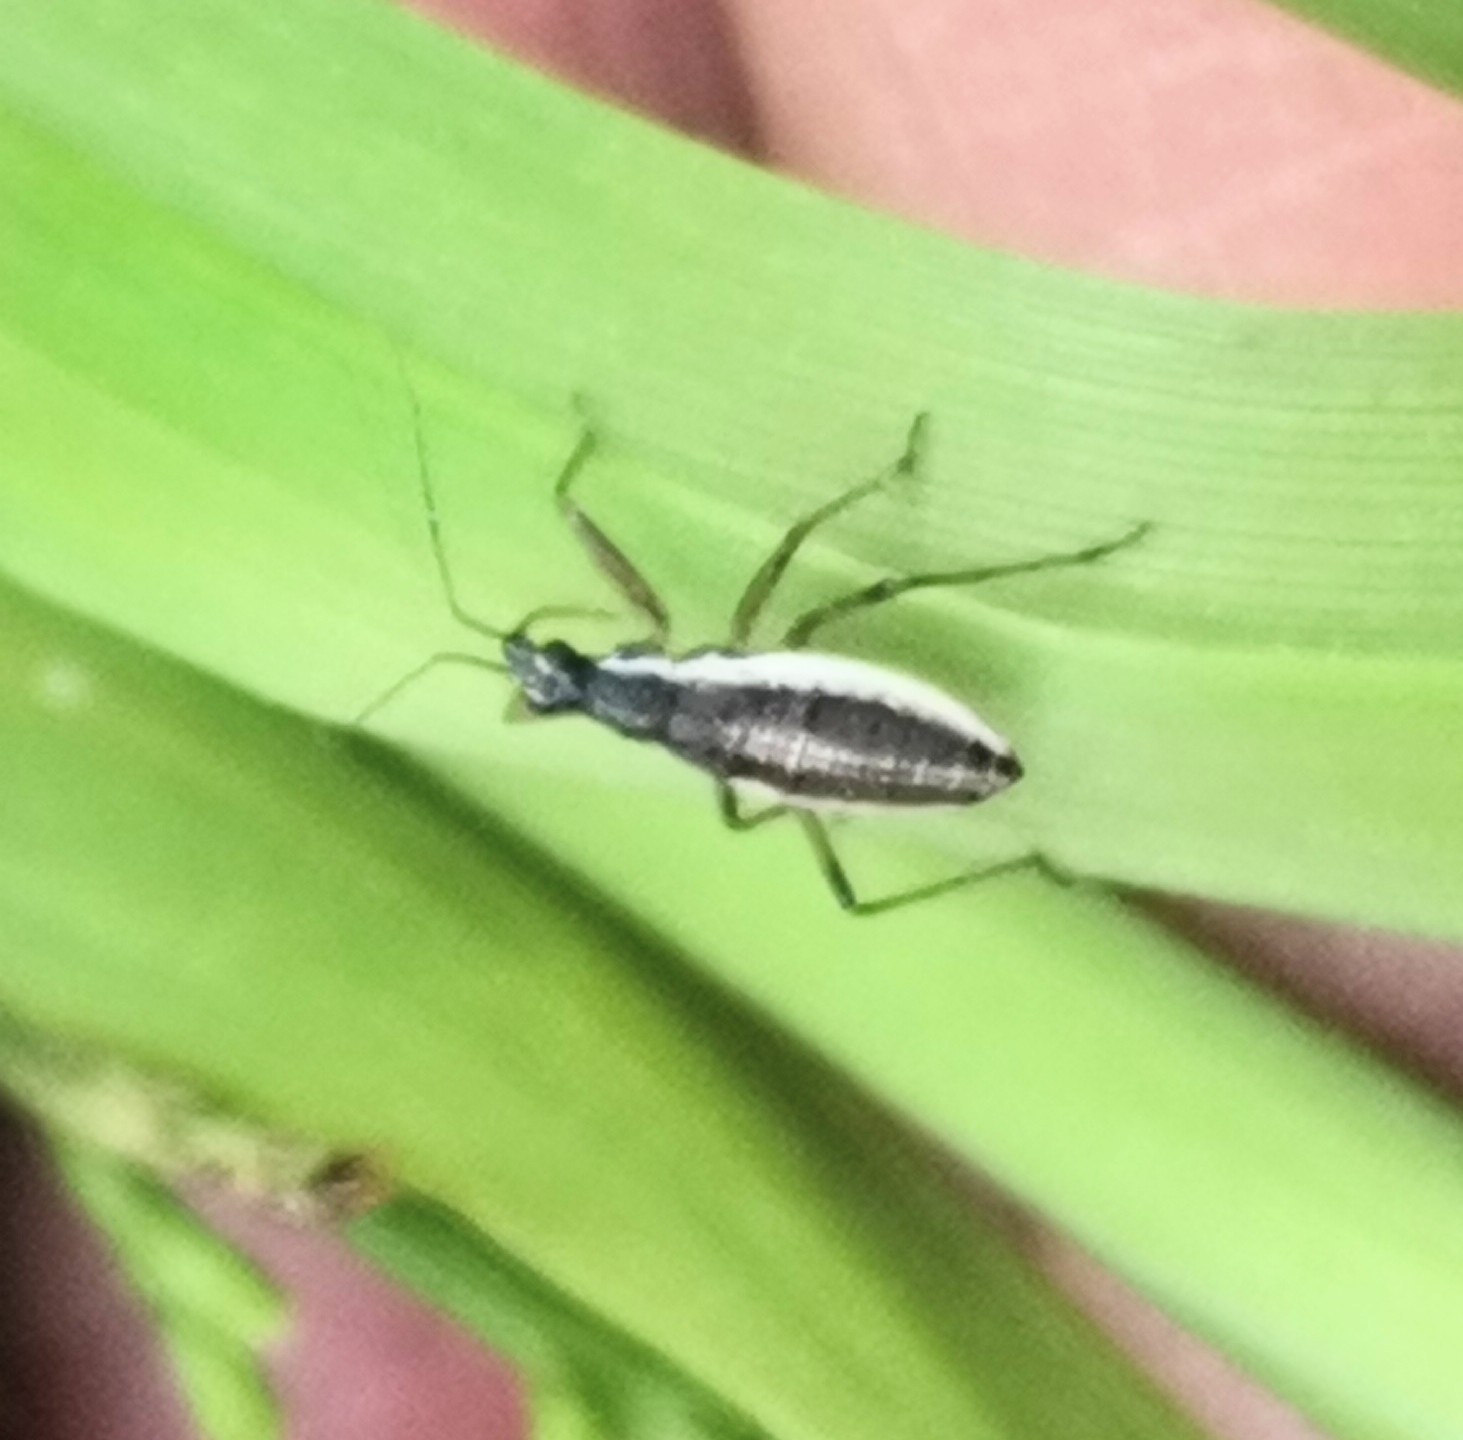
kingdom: Animalia
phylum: Arthropoda
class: Insecta
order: Hemiptera
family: Nabidae
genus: Nabis
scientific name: Nabis flavomarginatus
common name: Broad damselbug
